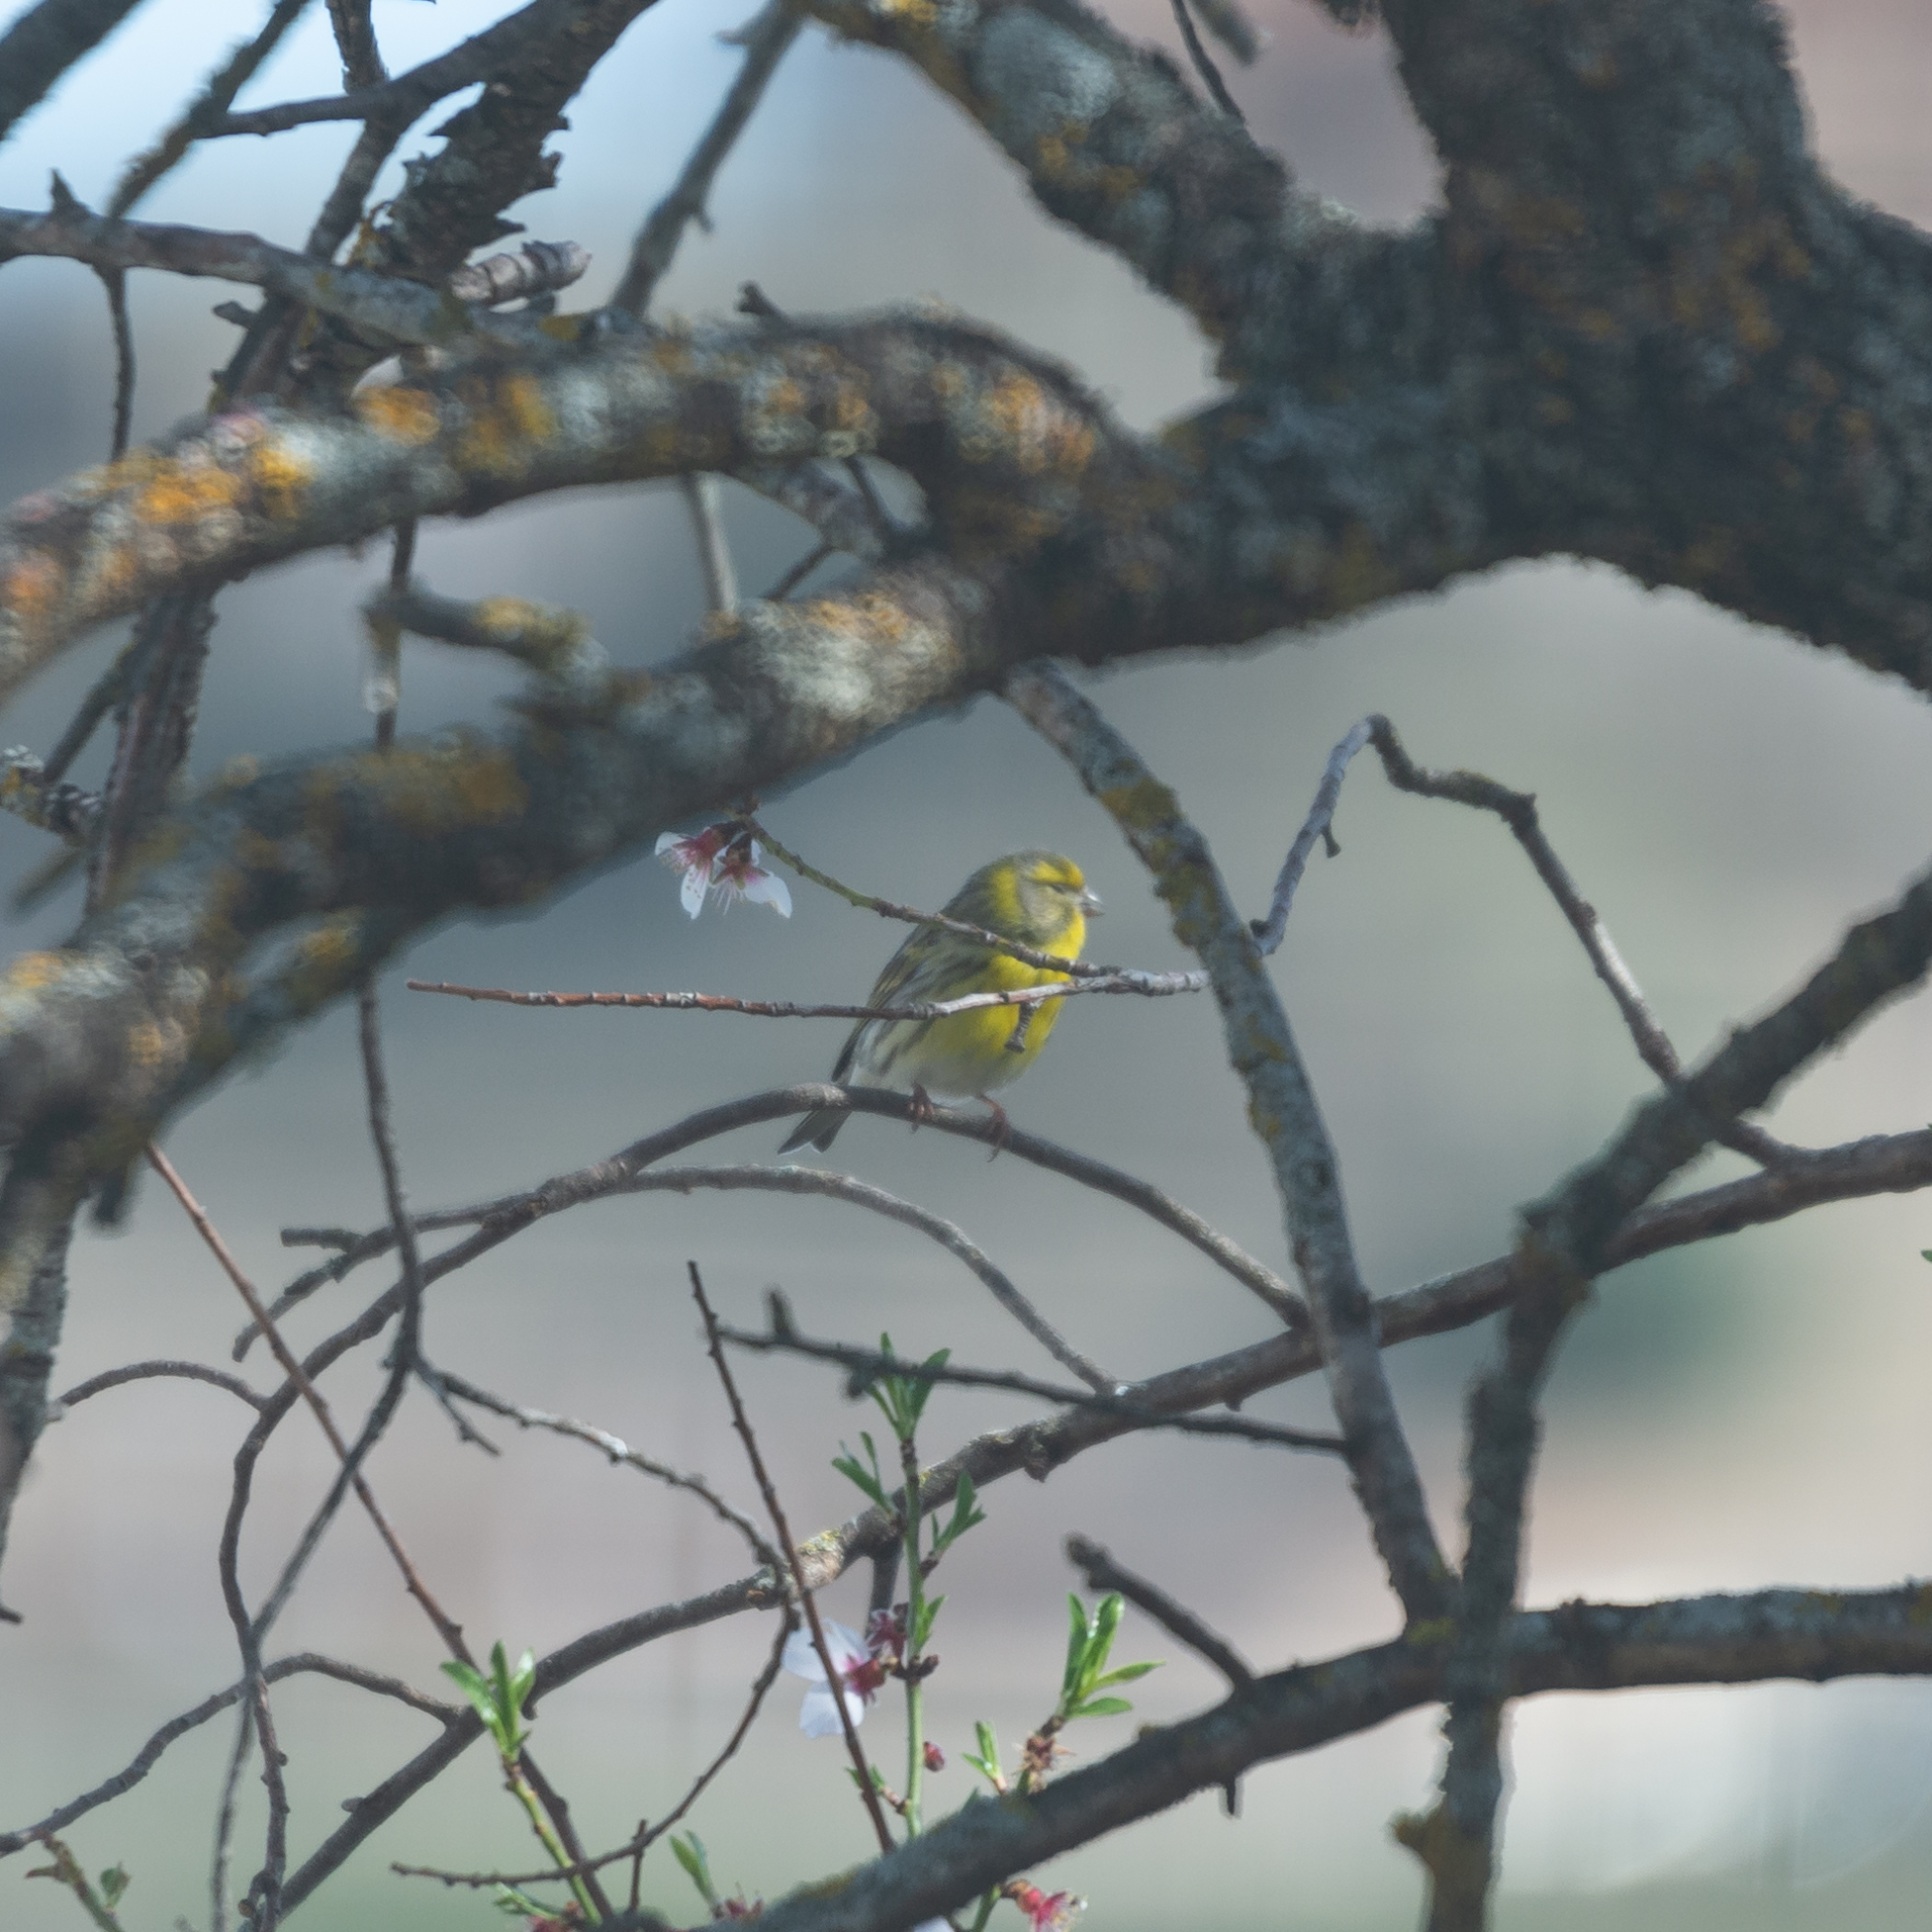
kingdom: Animalia
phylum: Chordata
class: Aves
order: Passeriformes
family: Fringillidae
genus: Serinus
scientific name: Serinus serinus
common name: European serin
